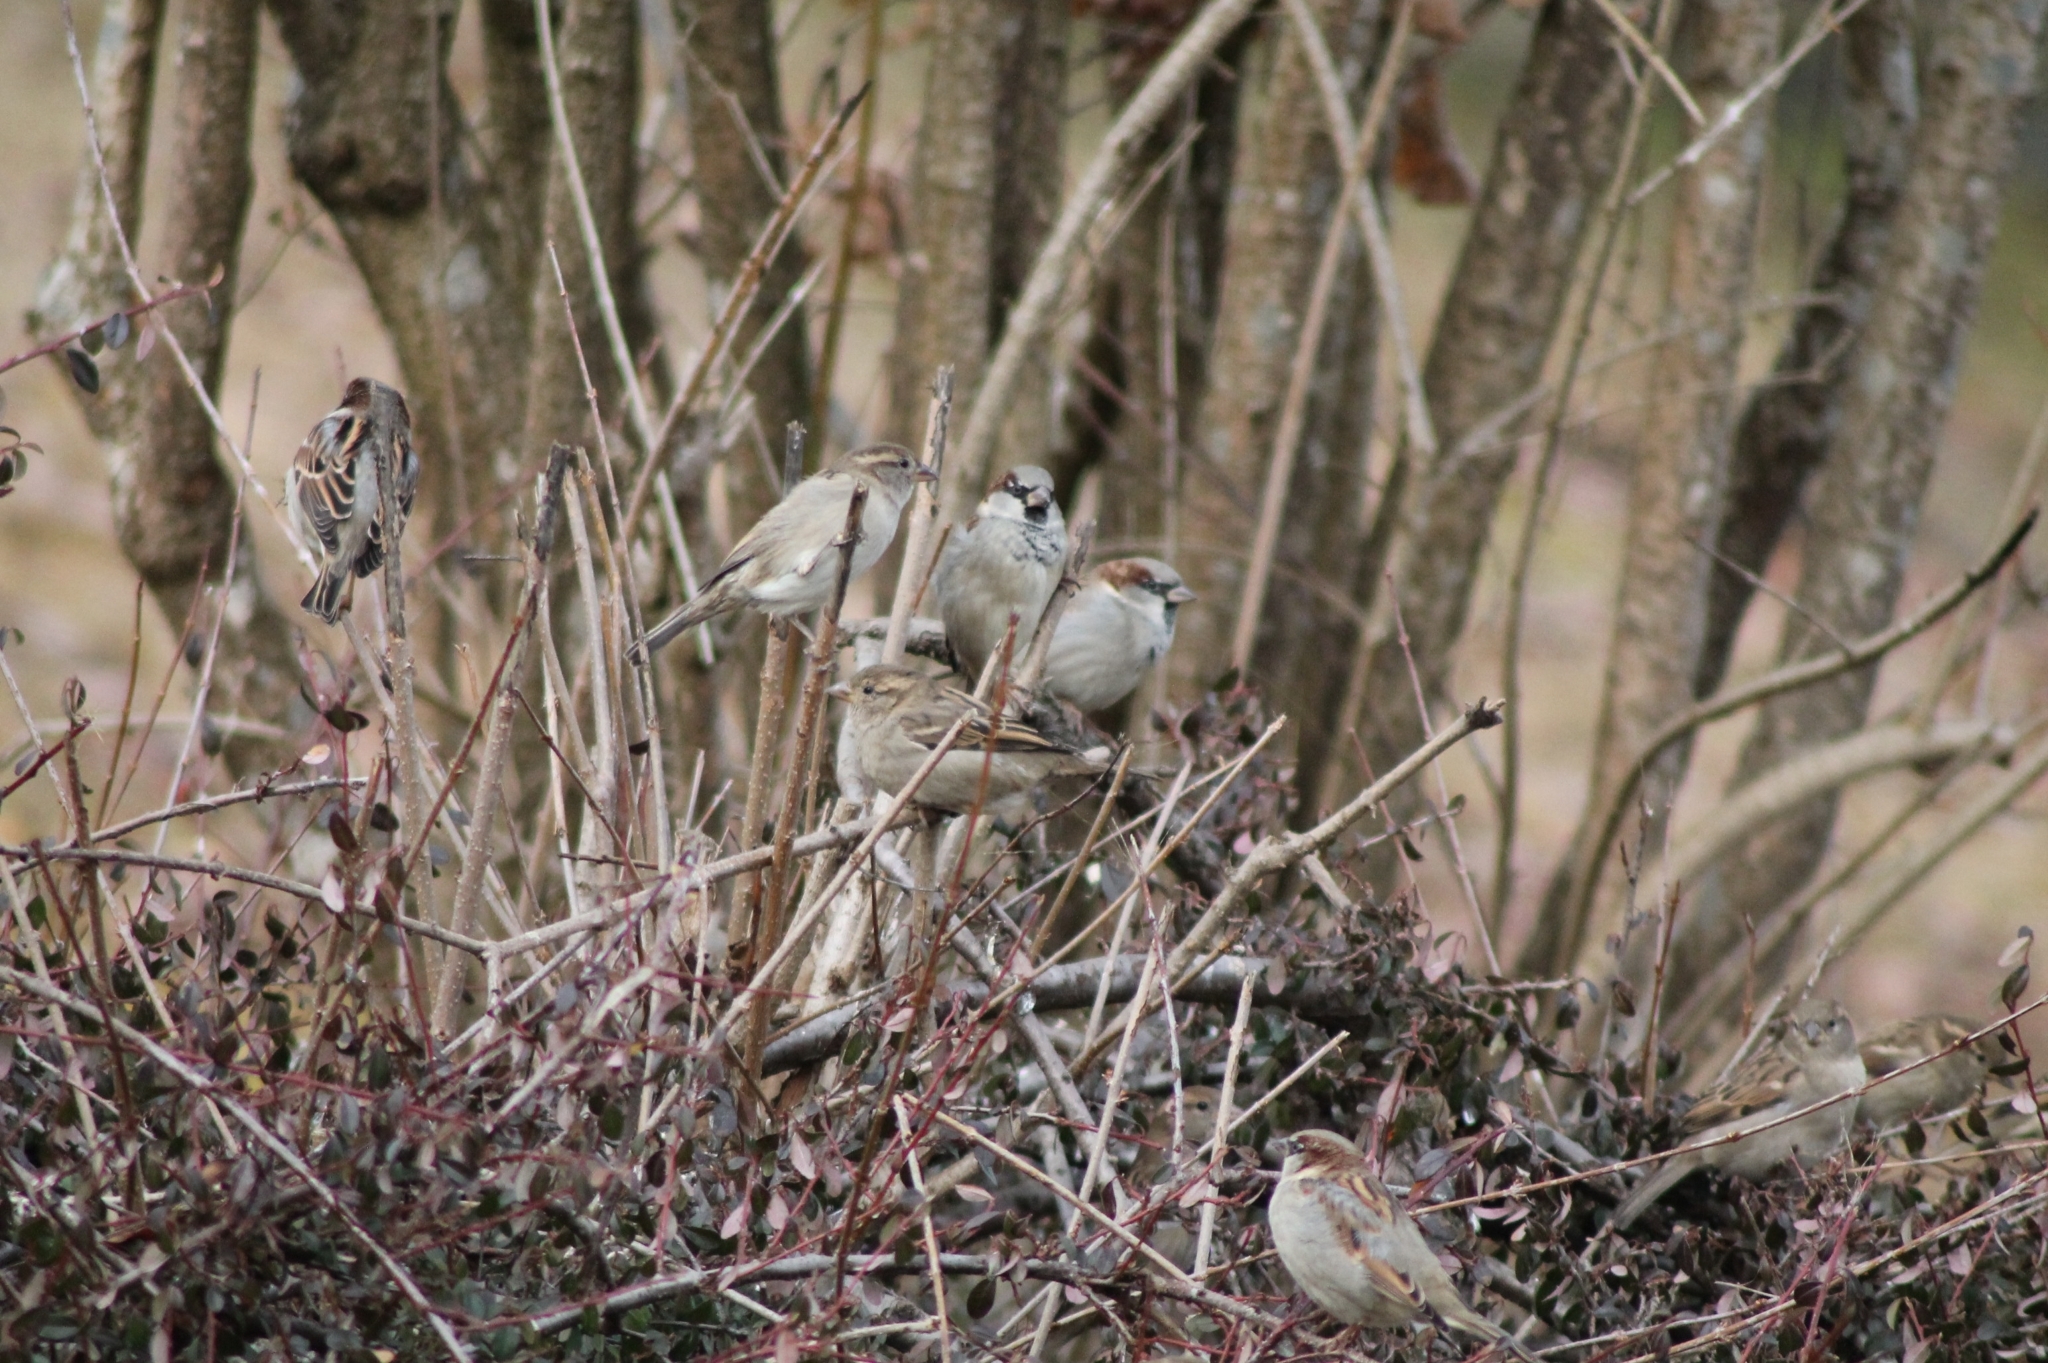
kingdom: Animalia
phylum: Chordata
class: Aves
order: Passeriformes
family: Passeridae
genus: Passer
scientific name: Passer domesticus
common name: House sparrow
